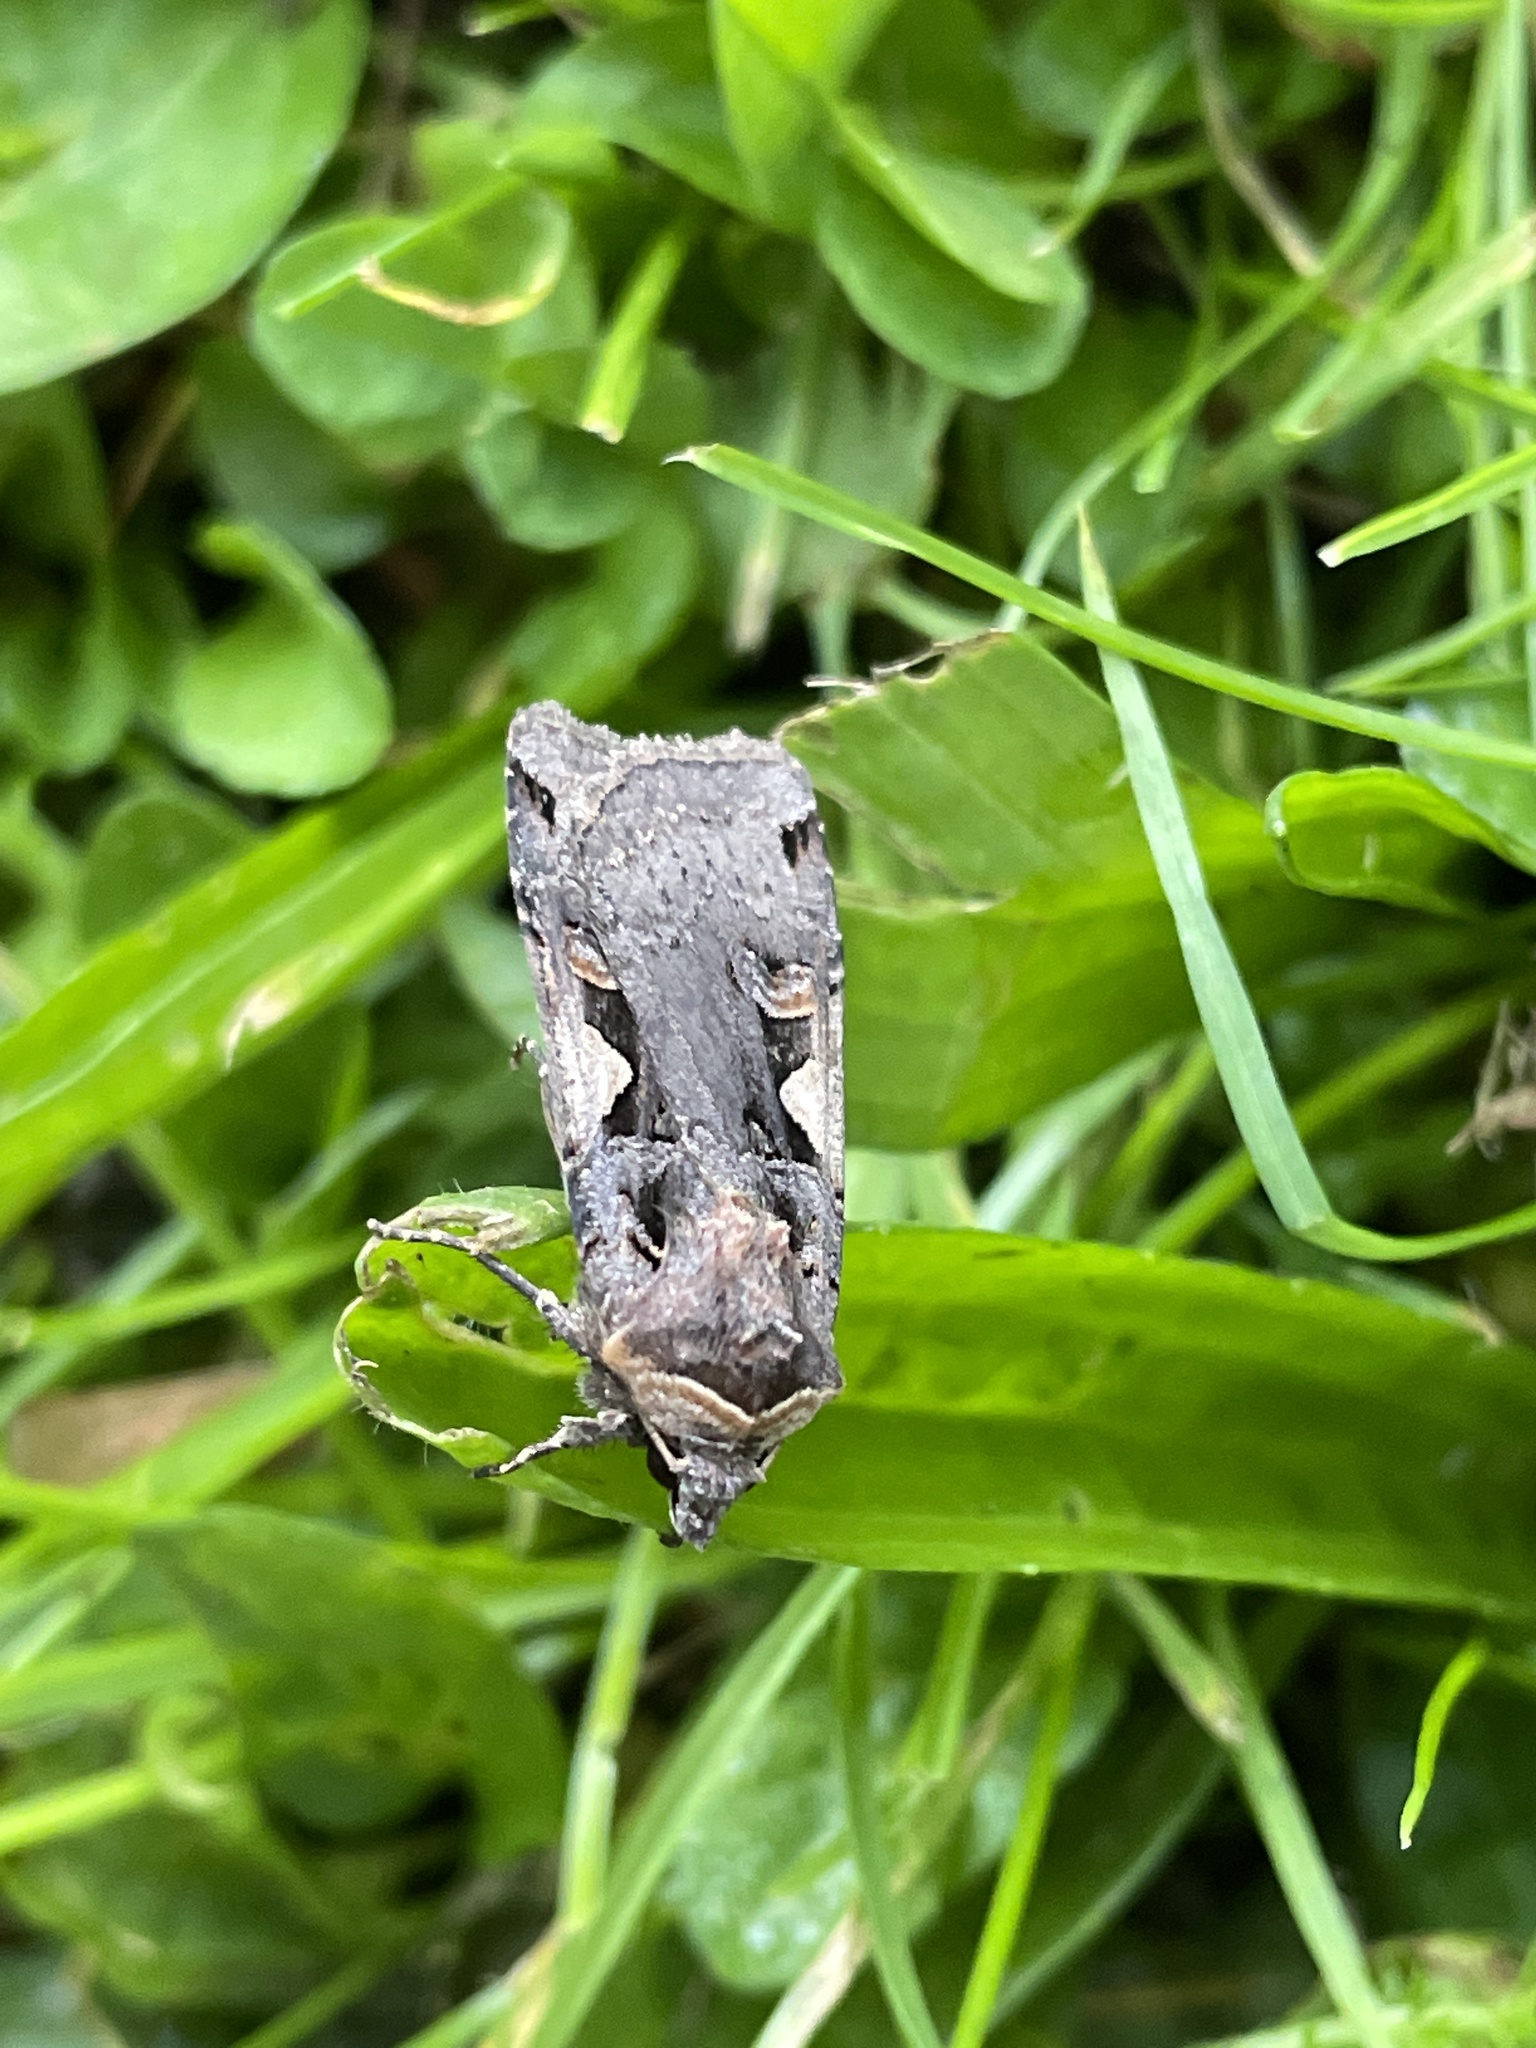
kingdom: Animalia
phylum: Arthropoda
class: Insecta
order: Lepidoptera
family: Noctuidae
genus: Xestia
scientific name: Xestia c-nigrum
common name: Setaceous hebrew character
